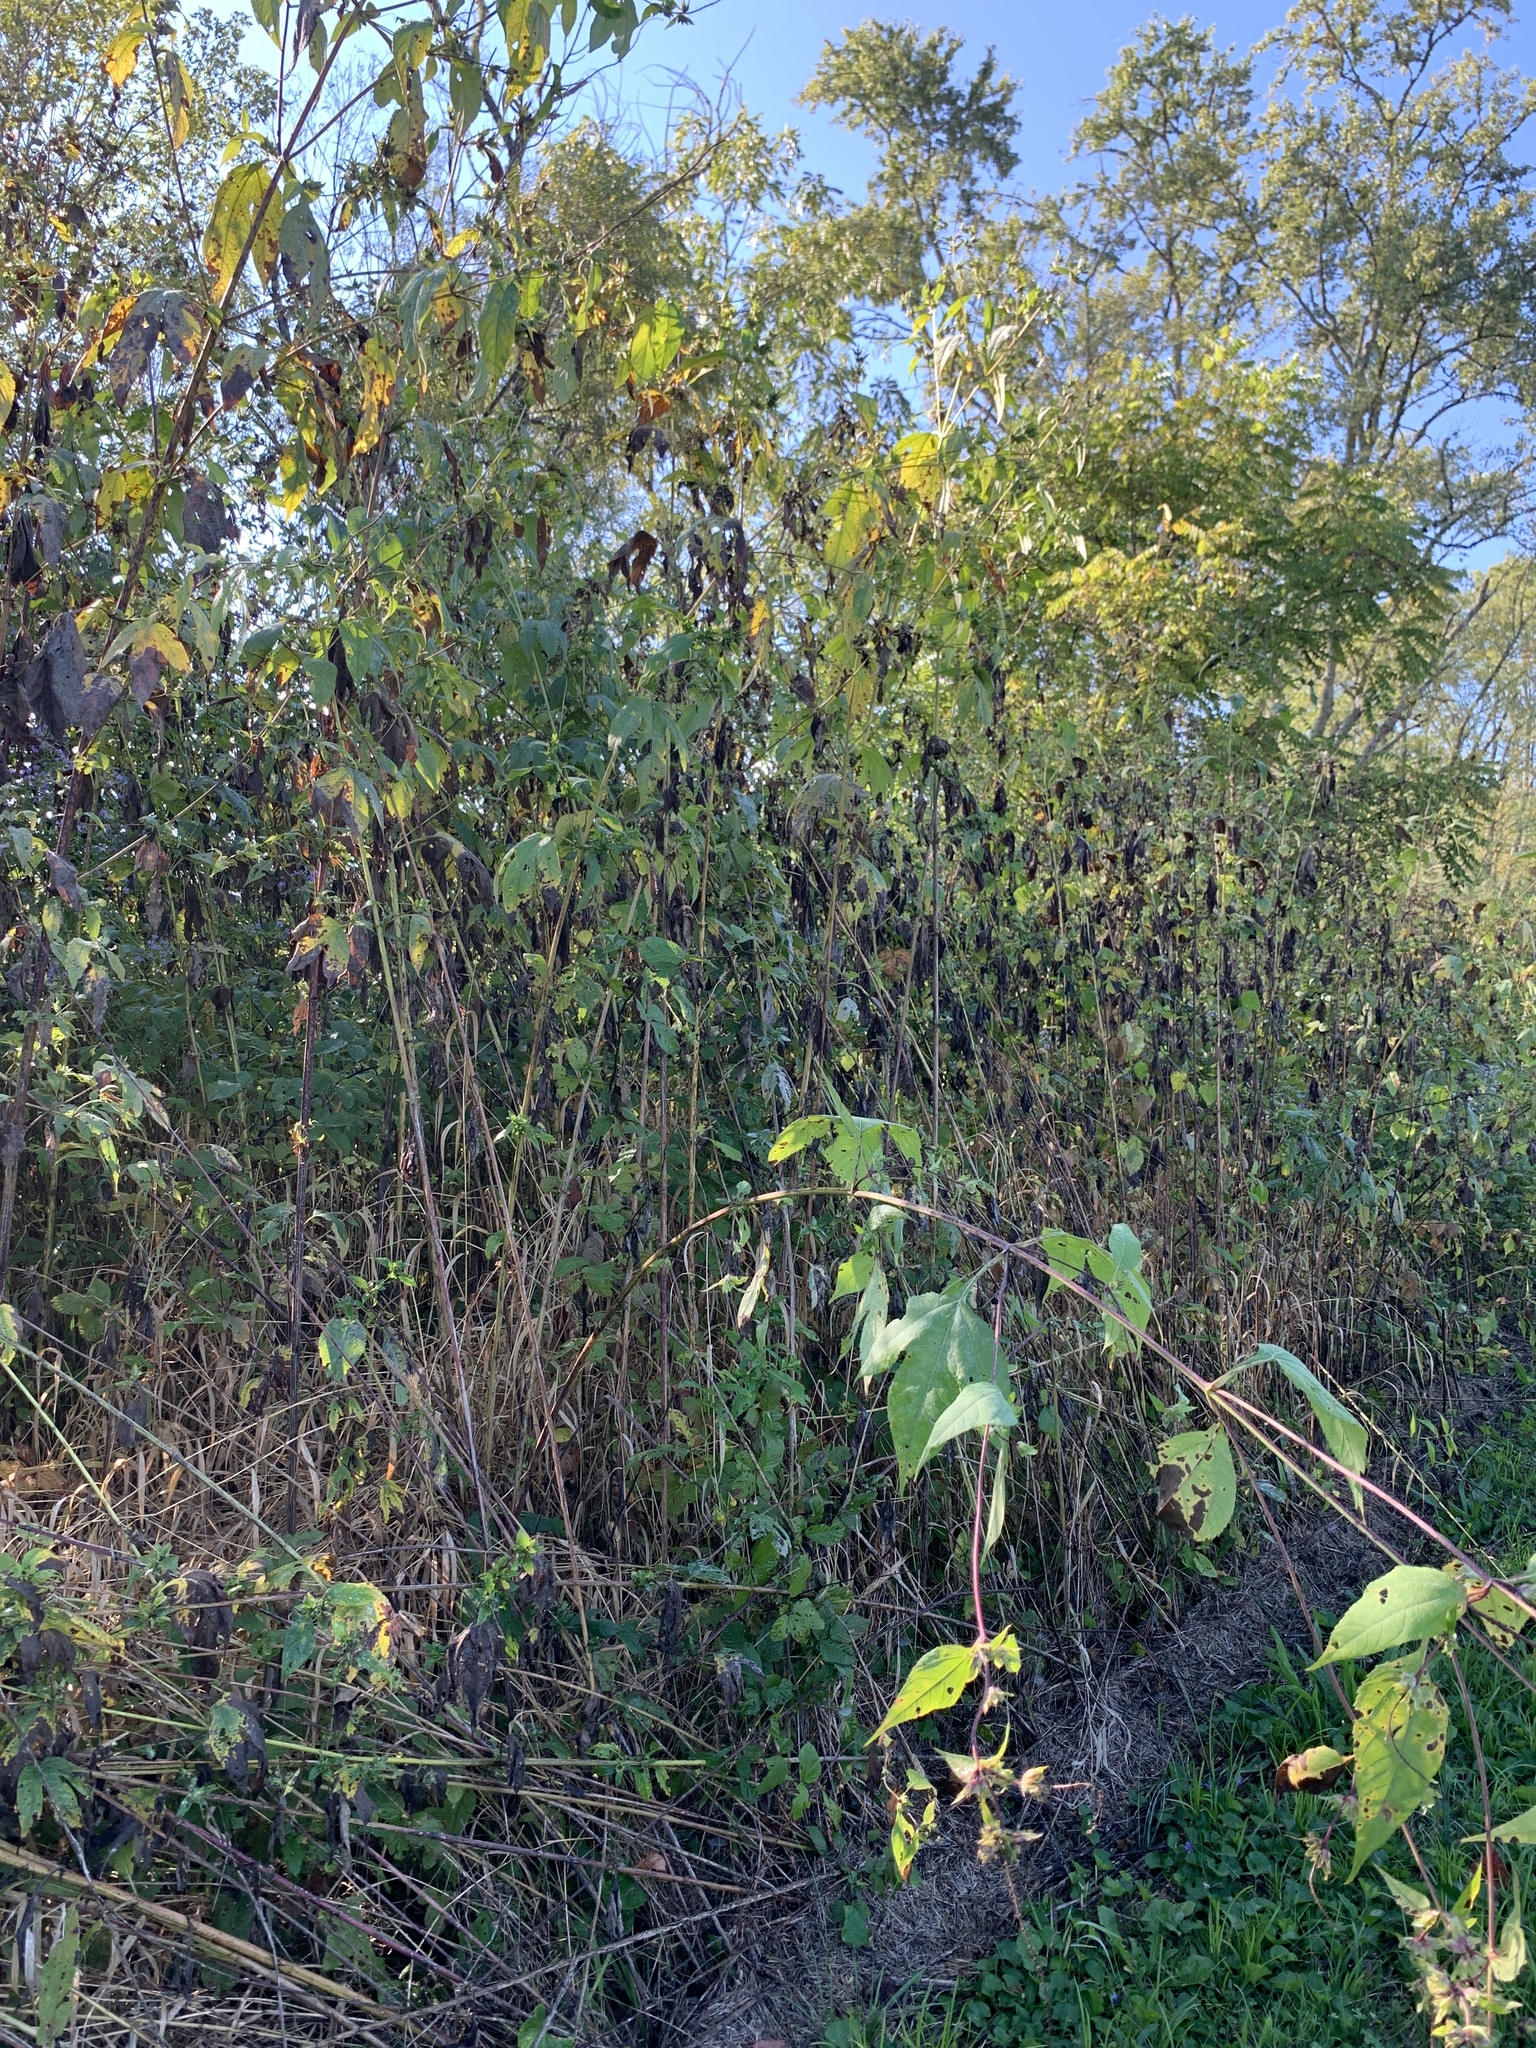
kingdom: Plantae
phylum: Tracheophyta
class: Magnoliopsida
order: Asterales
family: Asteraceae
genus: Ambrosia
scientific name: Ambrosia trifida
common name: Giant ragweed
